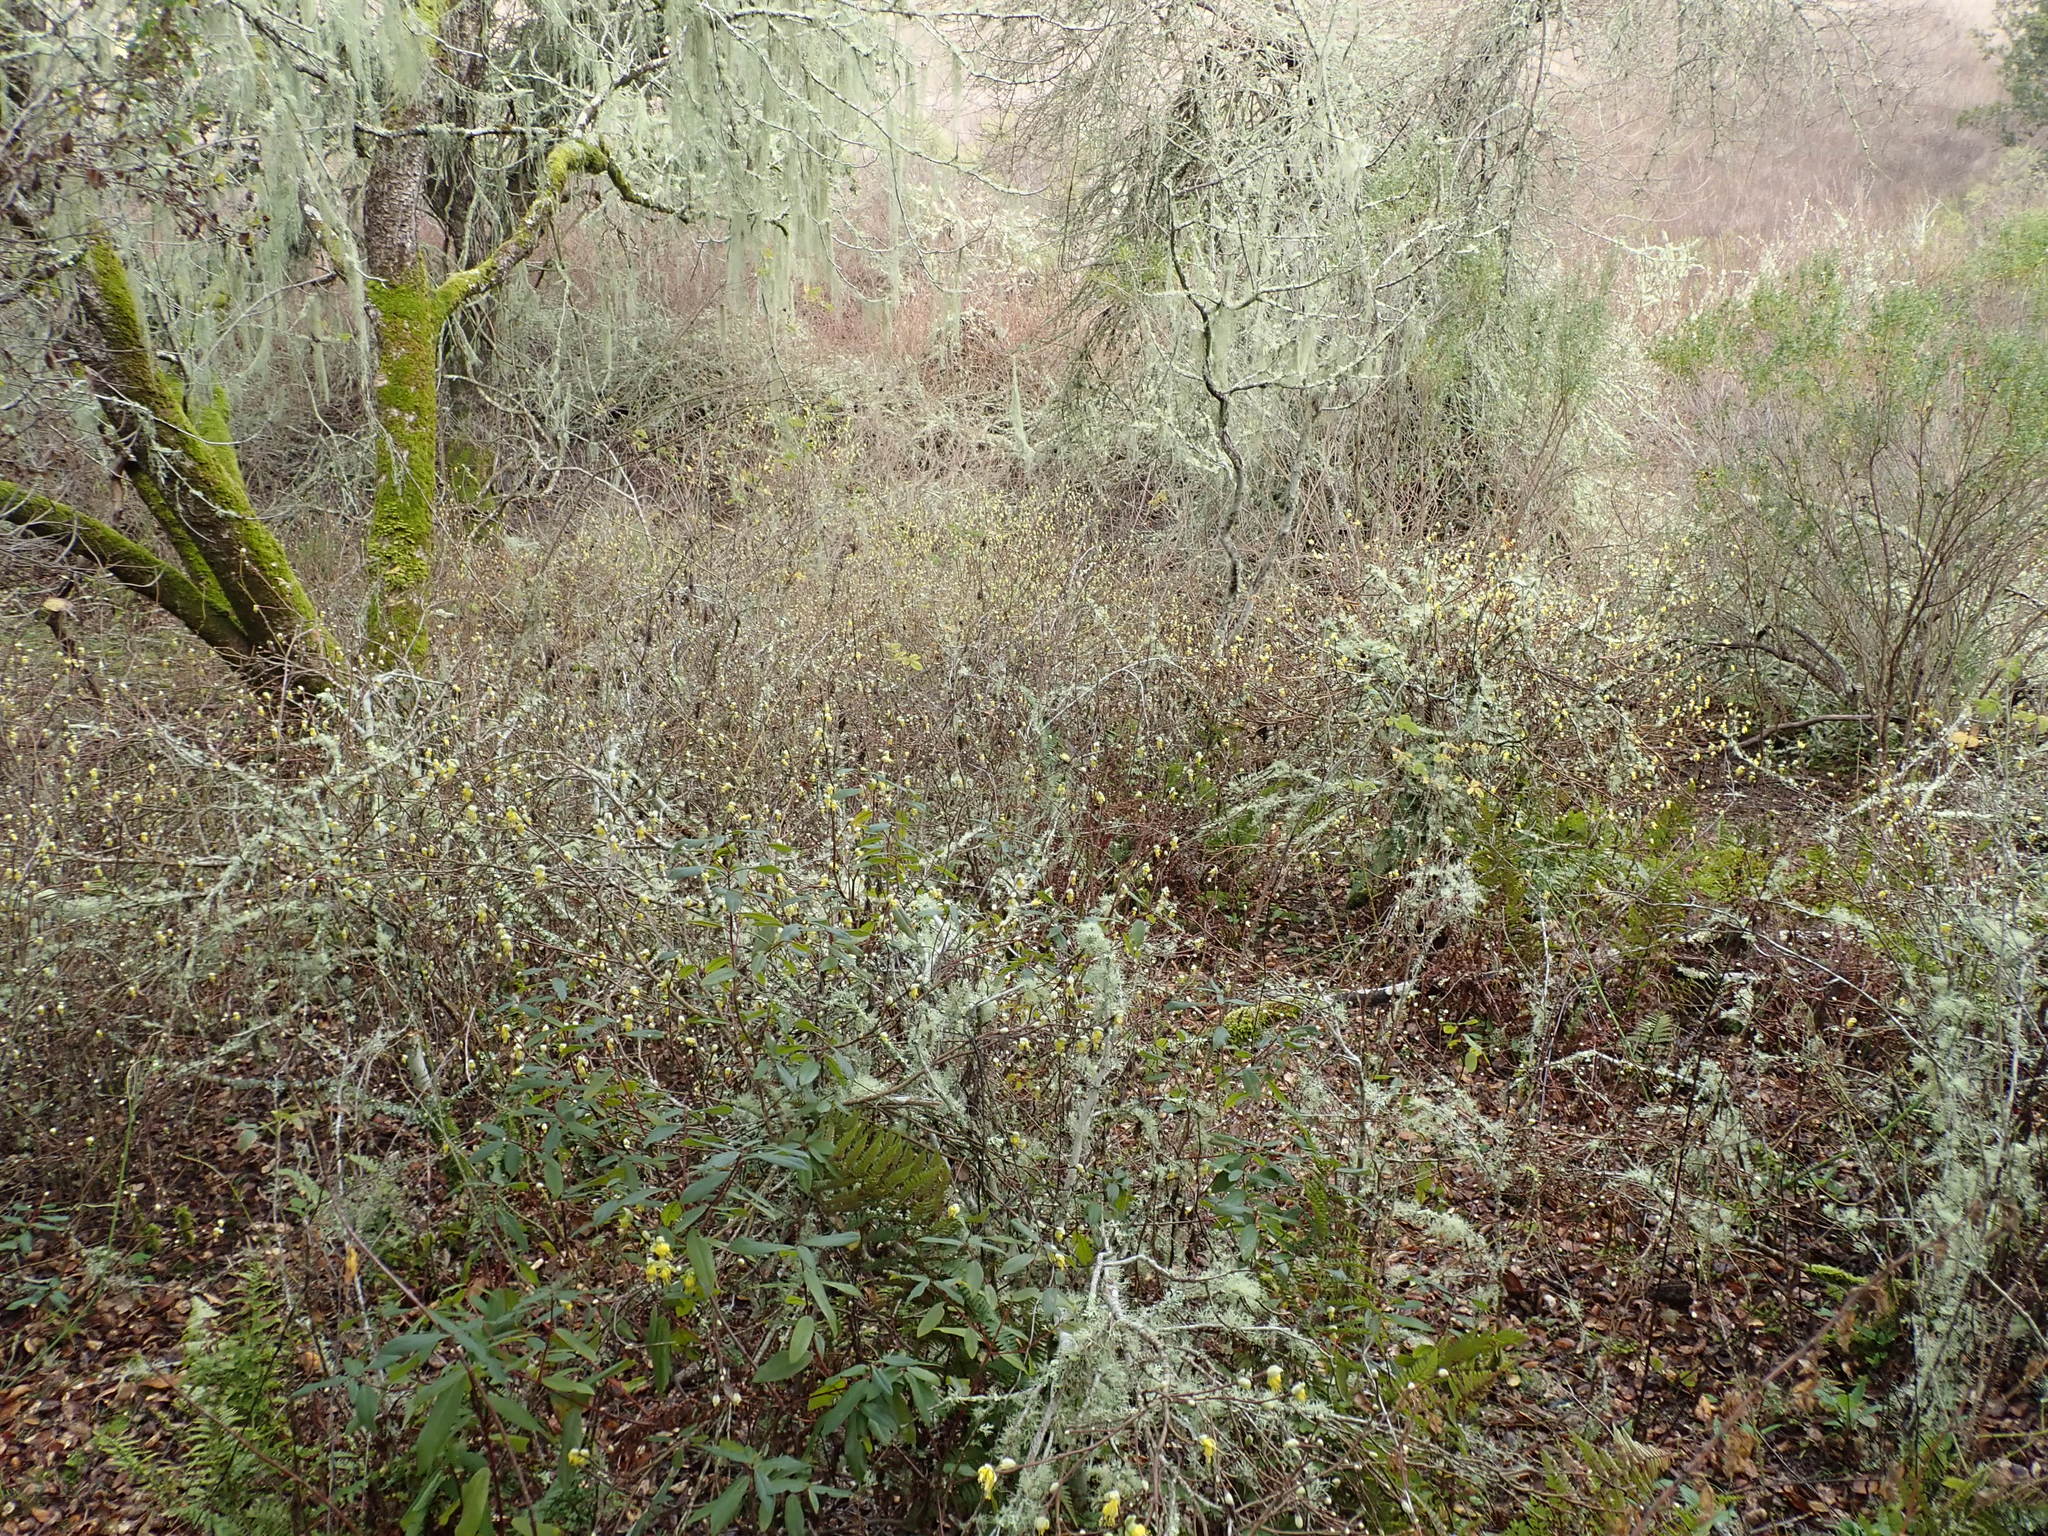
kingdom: Plantae
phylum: Tracheophyta
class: Magnoliopsida
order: Malvales
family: Thymelaeaceae
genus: Dirca
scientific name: Dirca occidentalis
